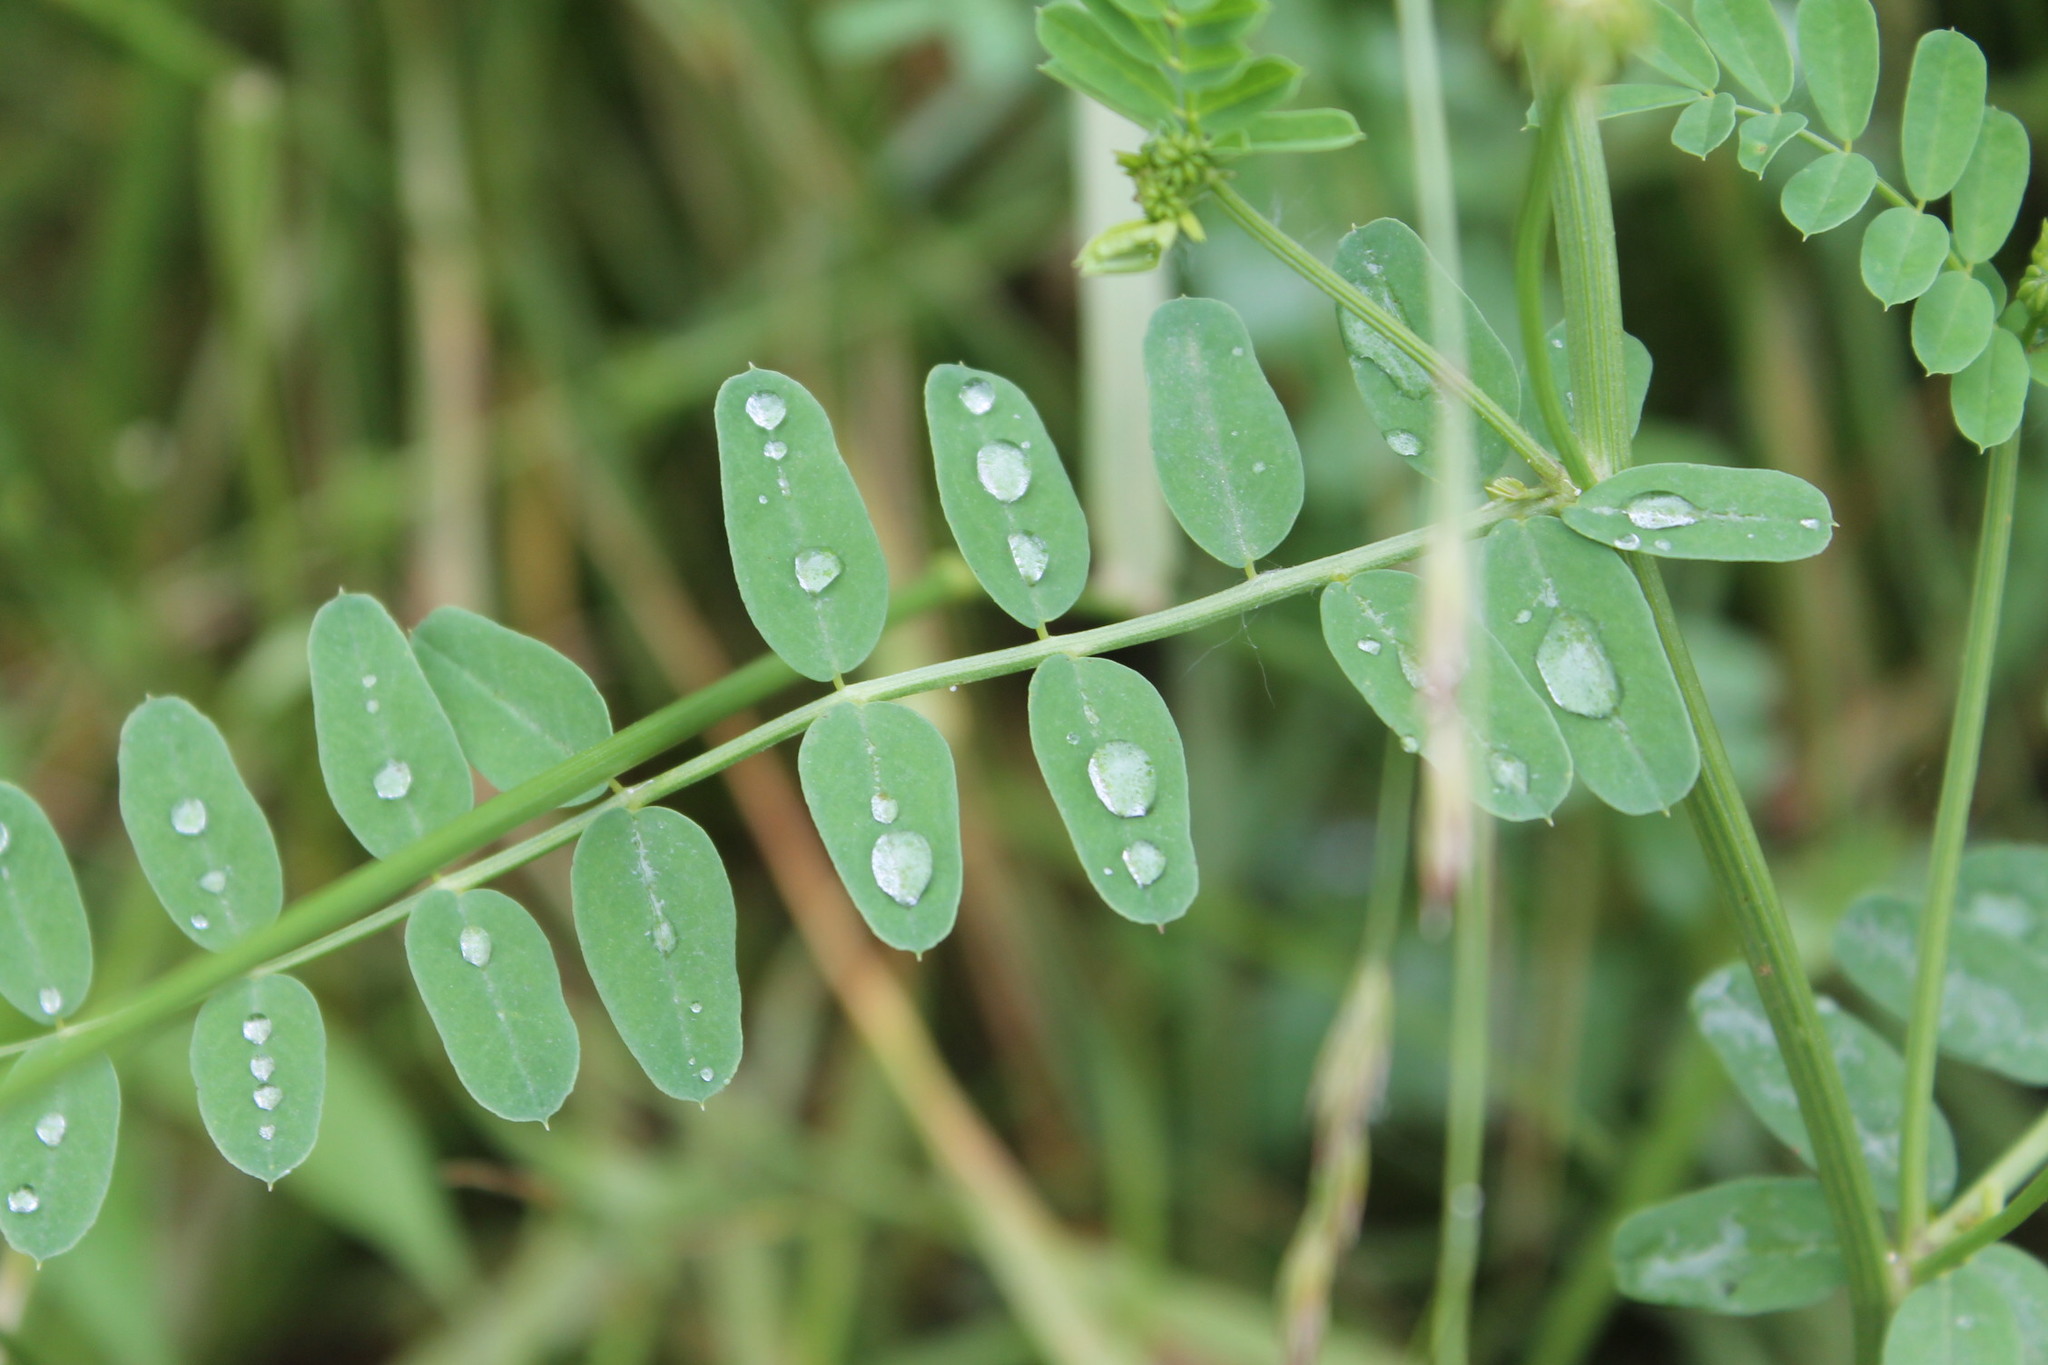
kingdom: Plantae
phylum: Tracheophyta
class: Magnoliopsida
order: Fabales
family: Fabaceae
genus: Coronilla
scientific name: Coronilla varia
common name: Crownvetch
